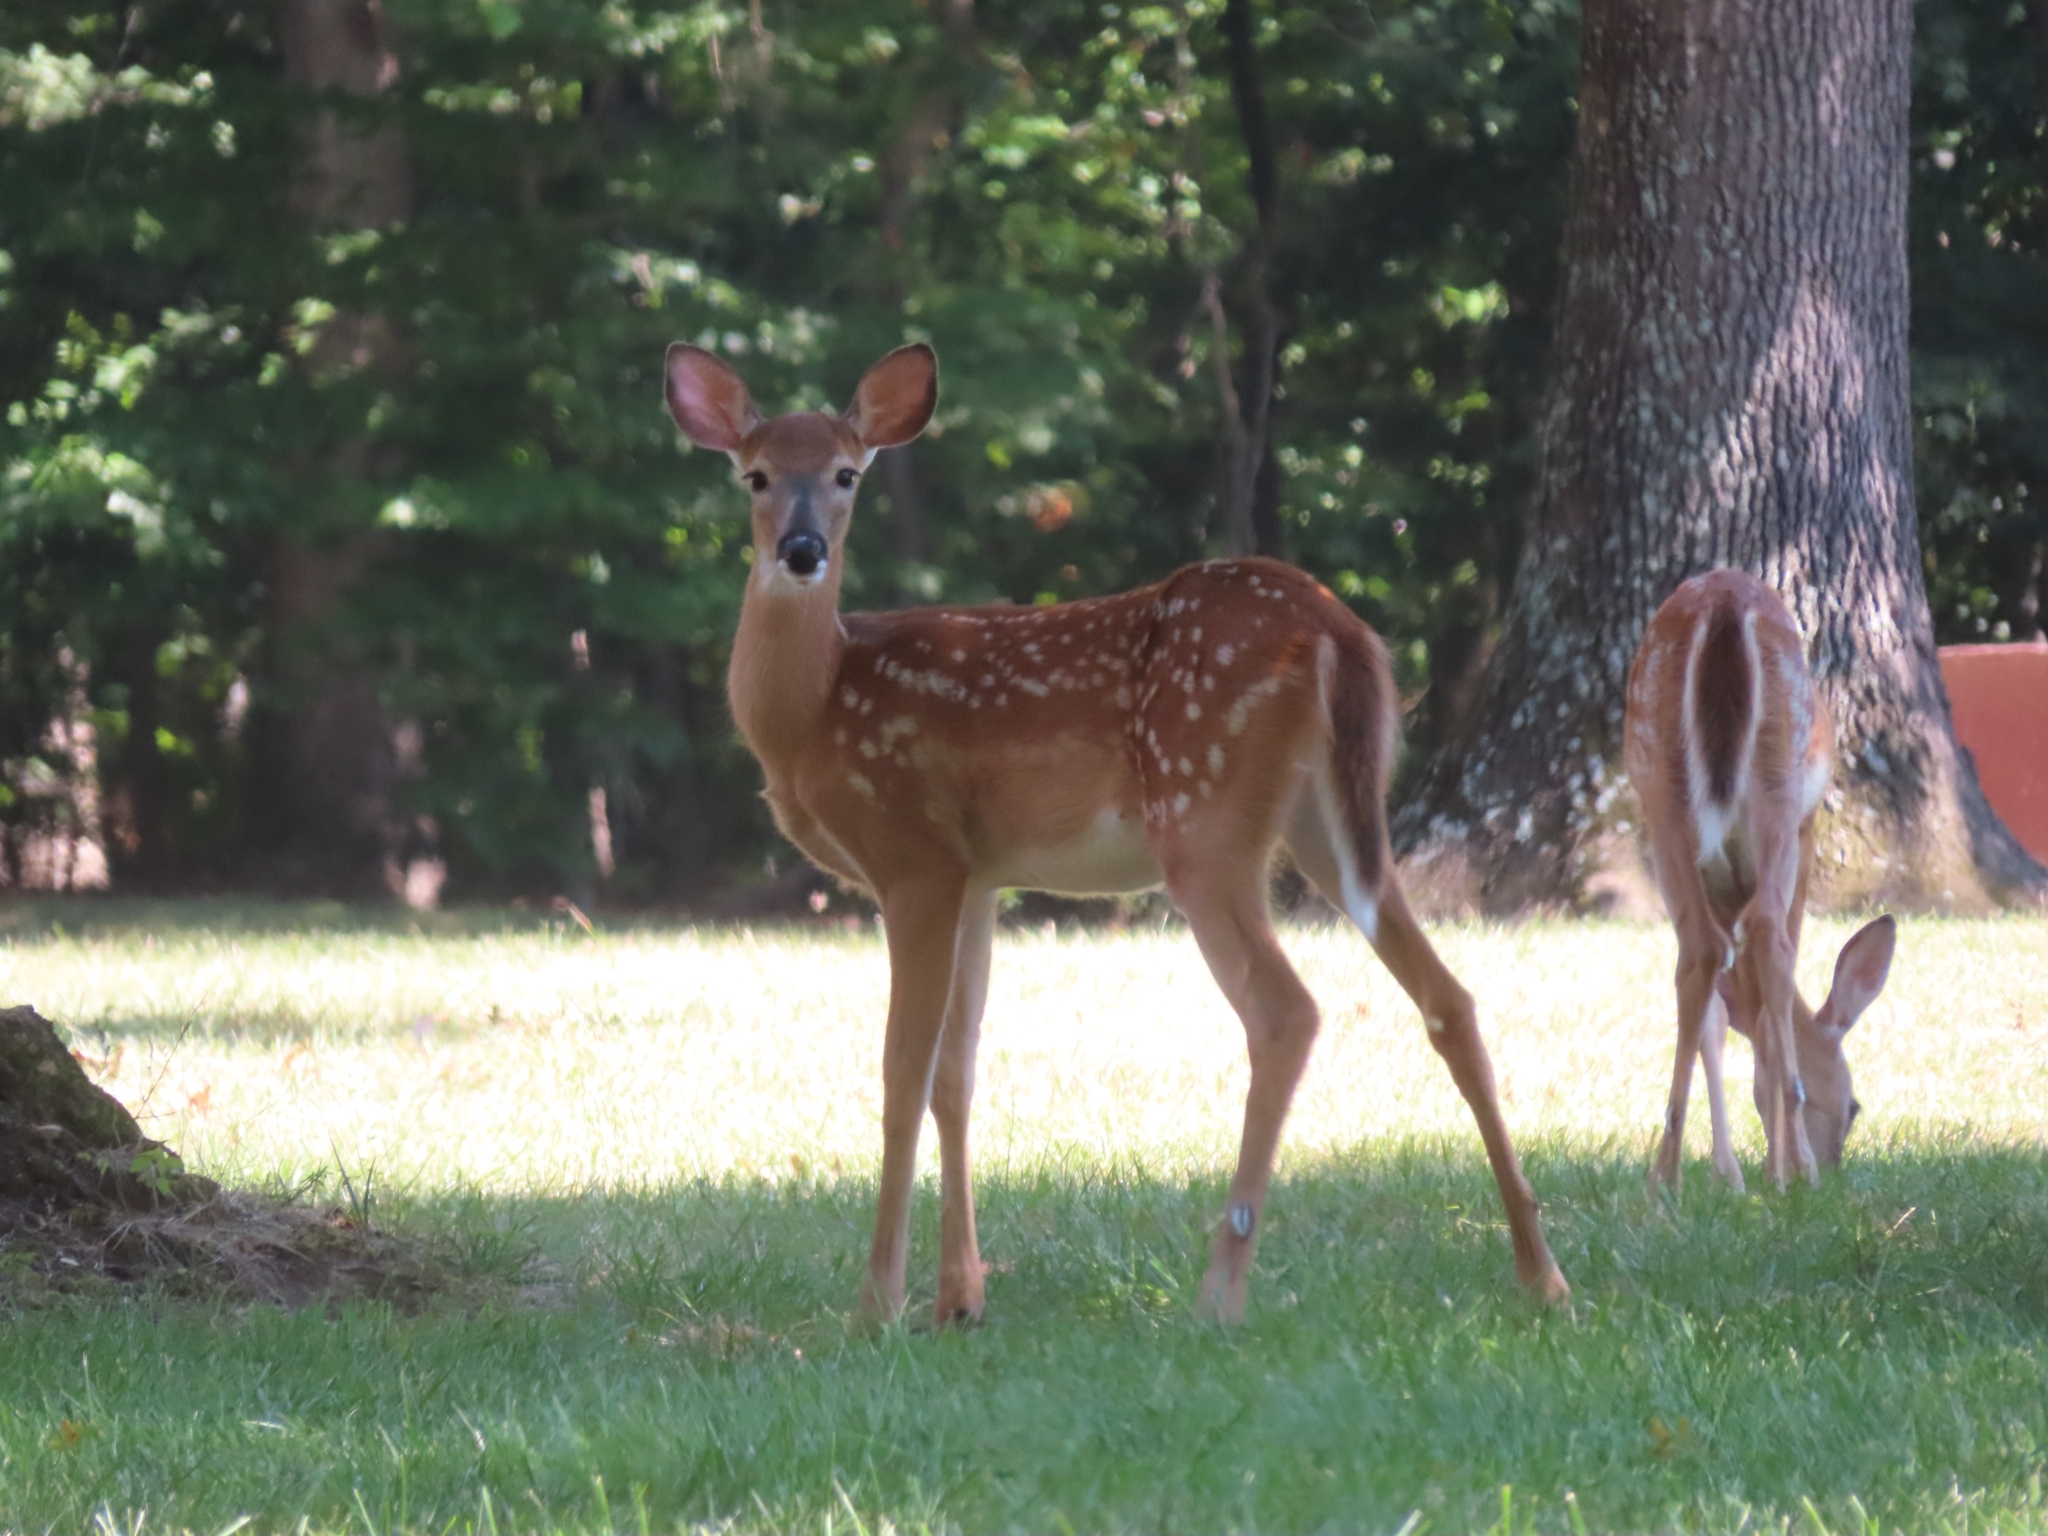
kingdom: Animalia
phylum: Chordata
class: Mammalia
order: Artiodactyla
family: Cervidae
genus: Odocoileus
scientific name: Odocoileus virginianus
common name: White-tailed deer
